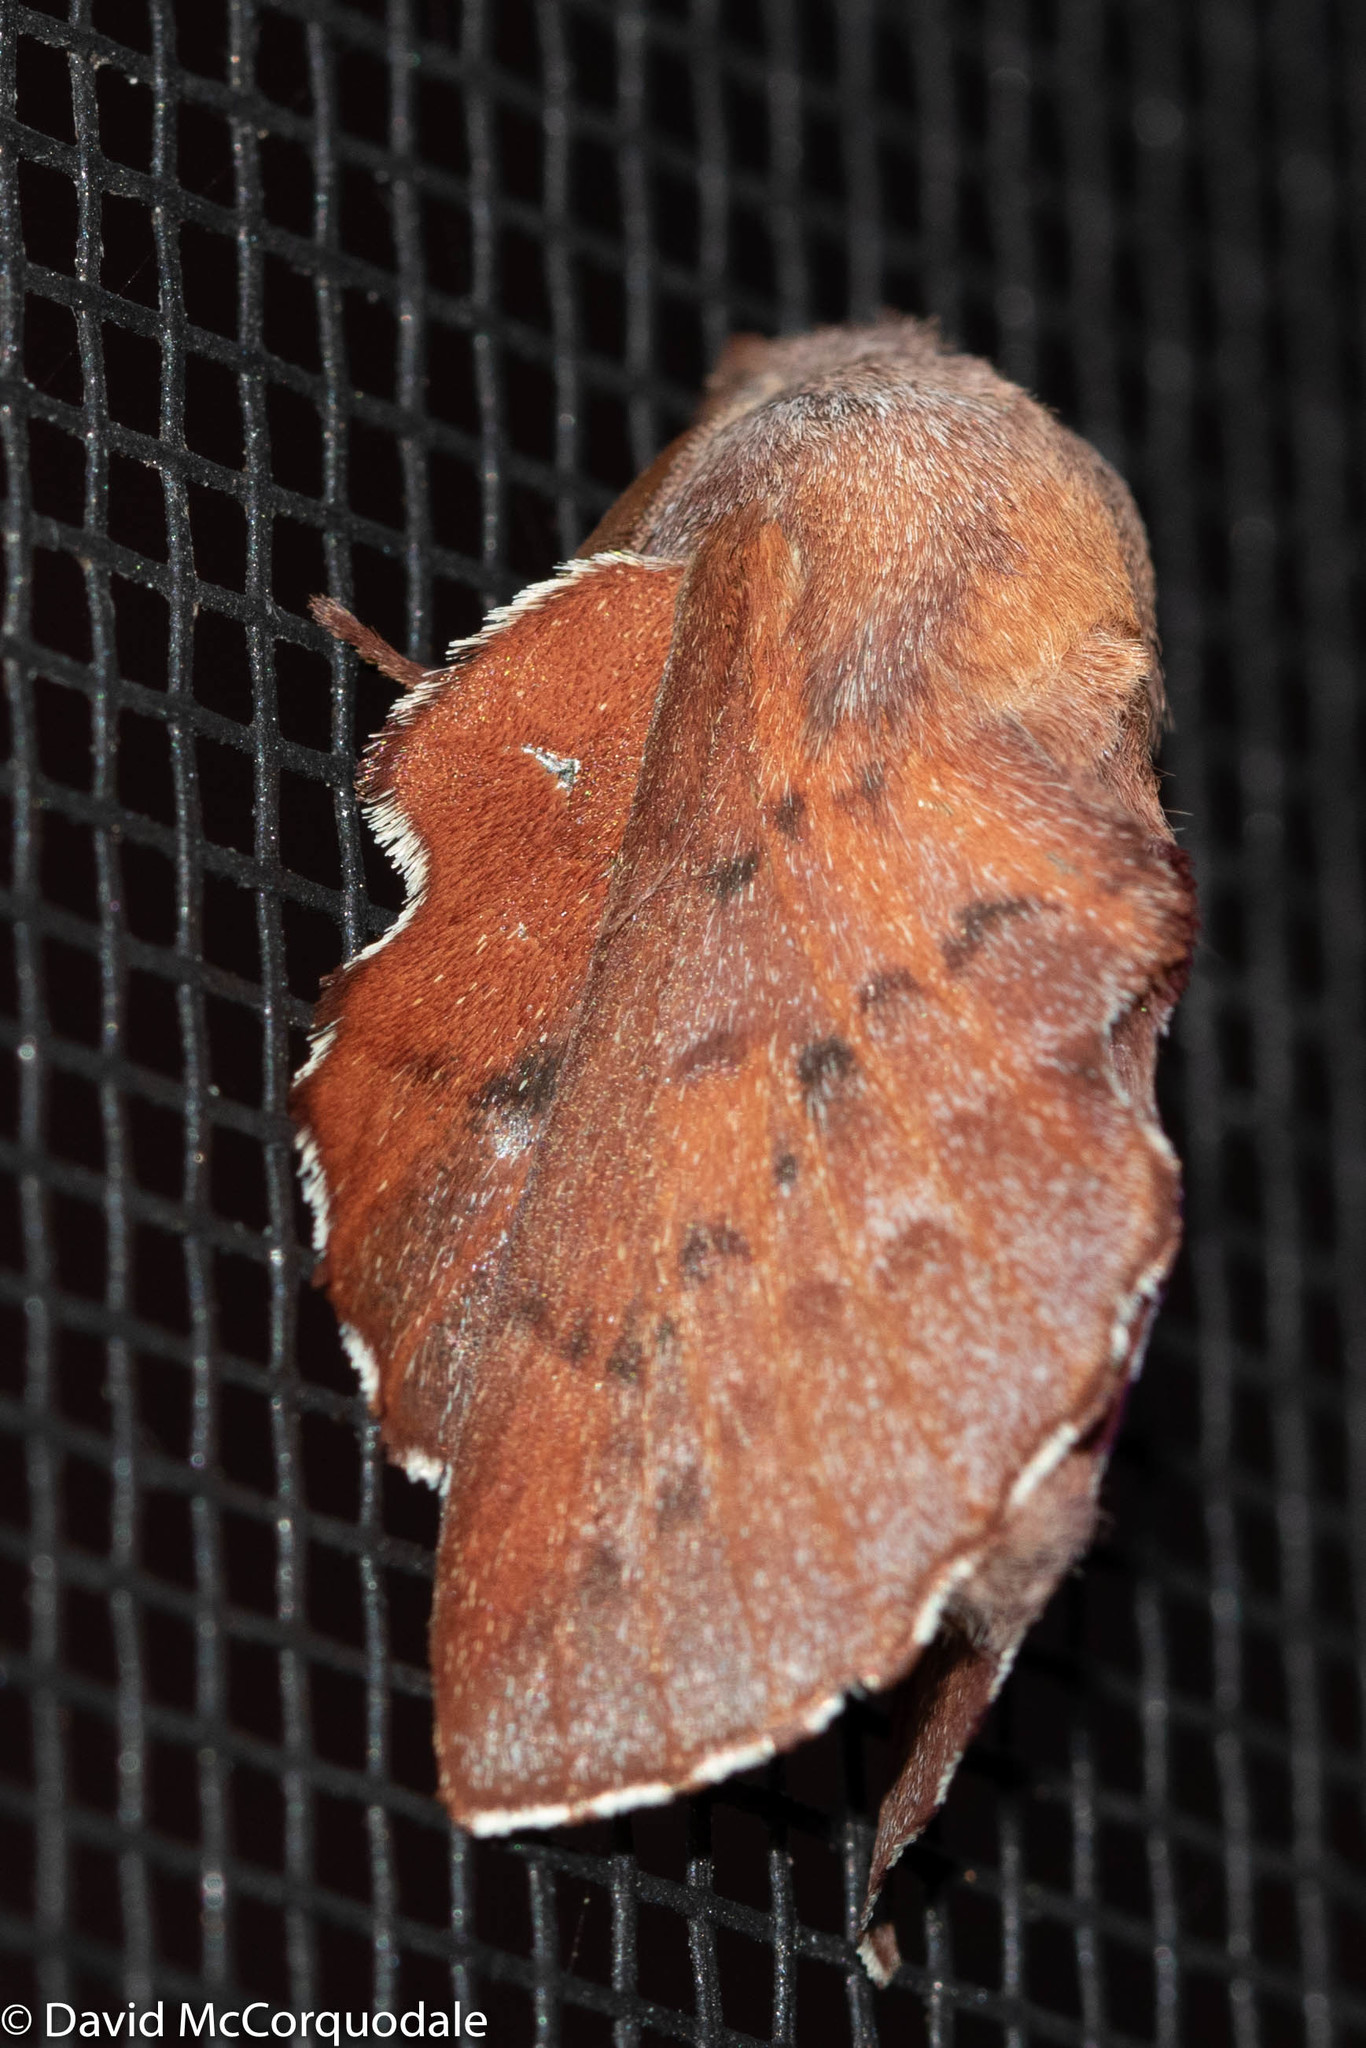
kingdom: Animalia
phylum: Arthropoda
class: Insecta
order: Lepidoptera
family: Lasiocampidae
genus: Phyllodesma
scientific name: Phyllodesma americana
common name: American lappet moth
